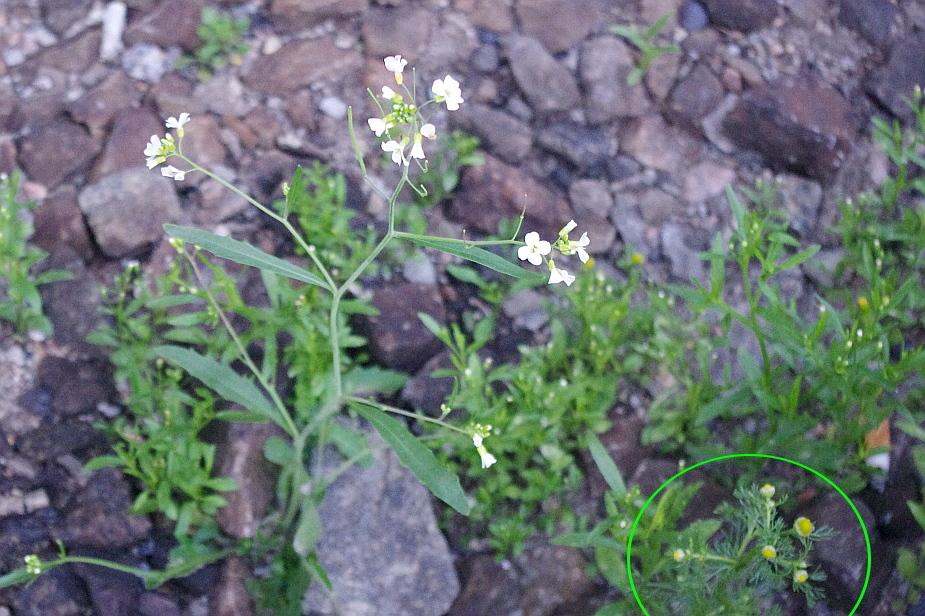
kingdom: Plantae
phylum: Tracheophyta
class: Magnoliopsida
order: Asterales
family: Asteraceae
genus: Matricaria
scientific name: Matricaria discoidea
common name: Disc mayweed
